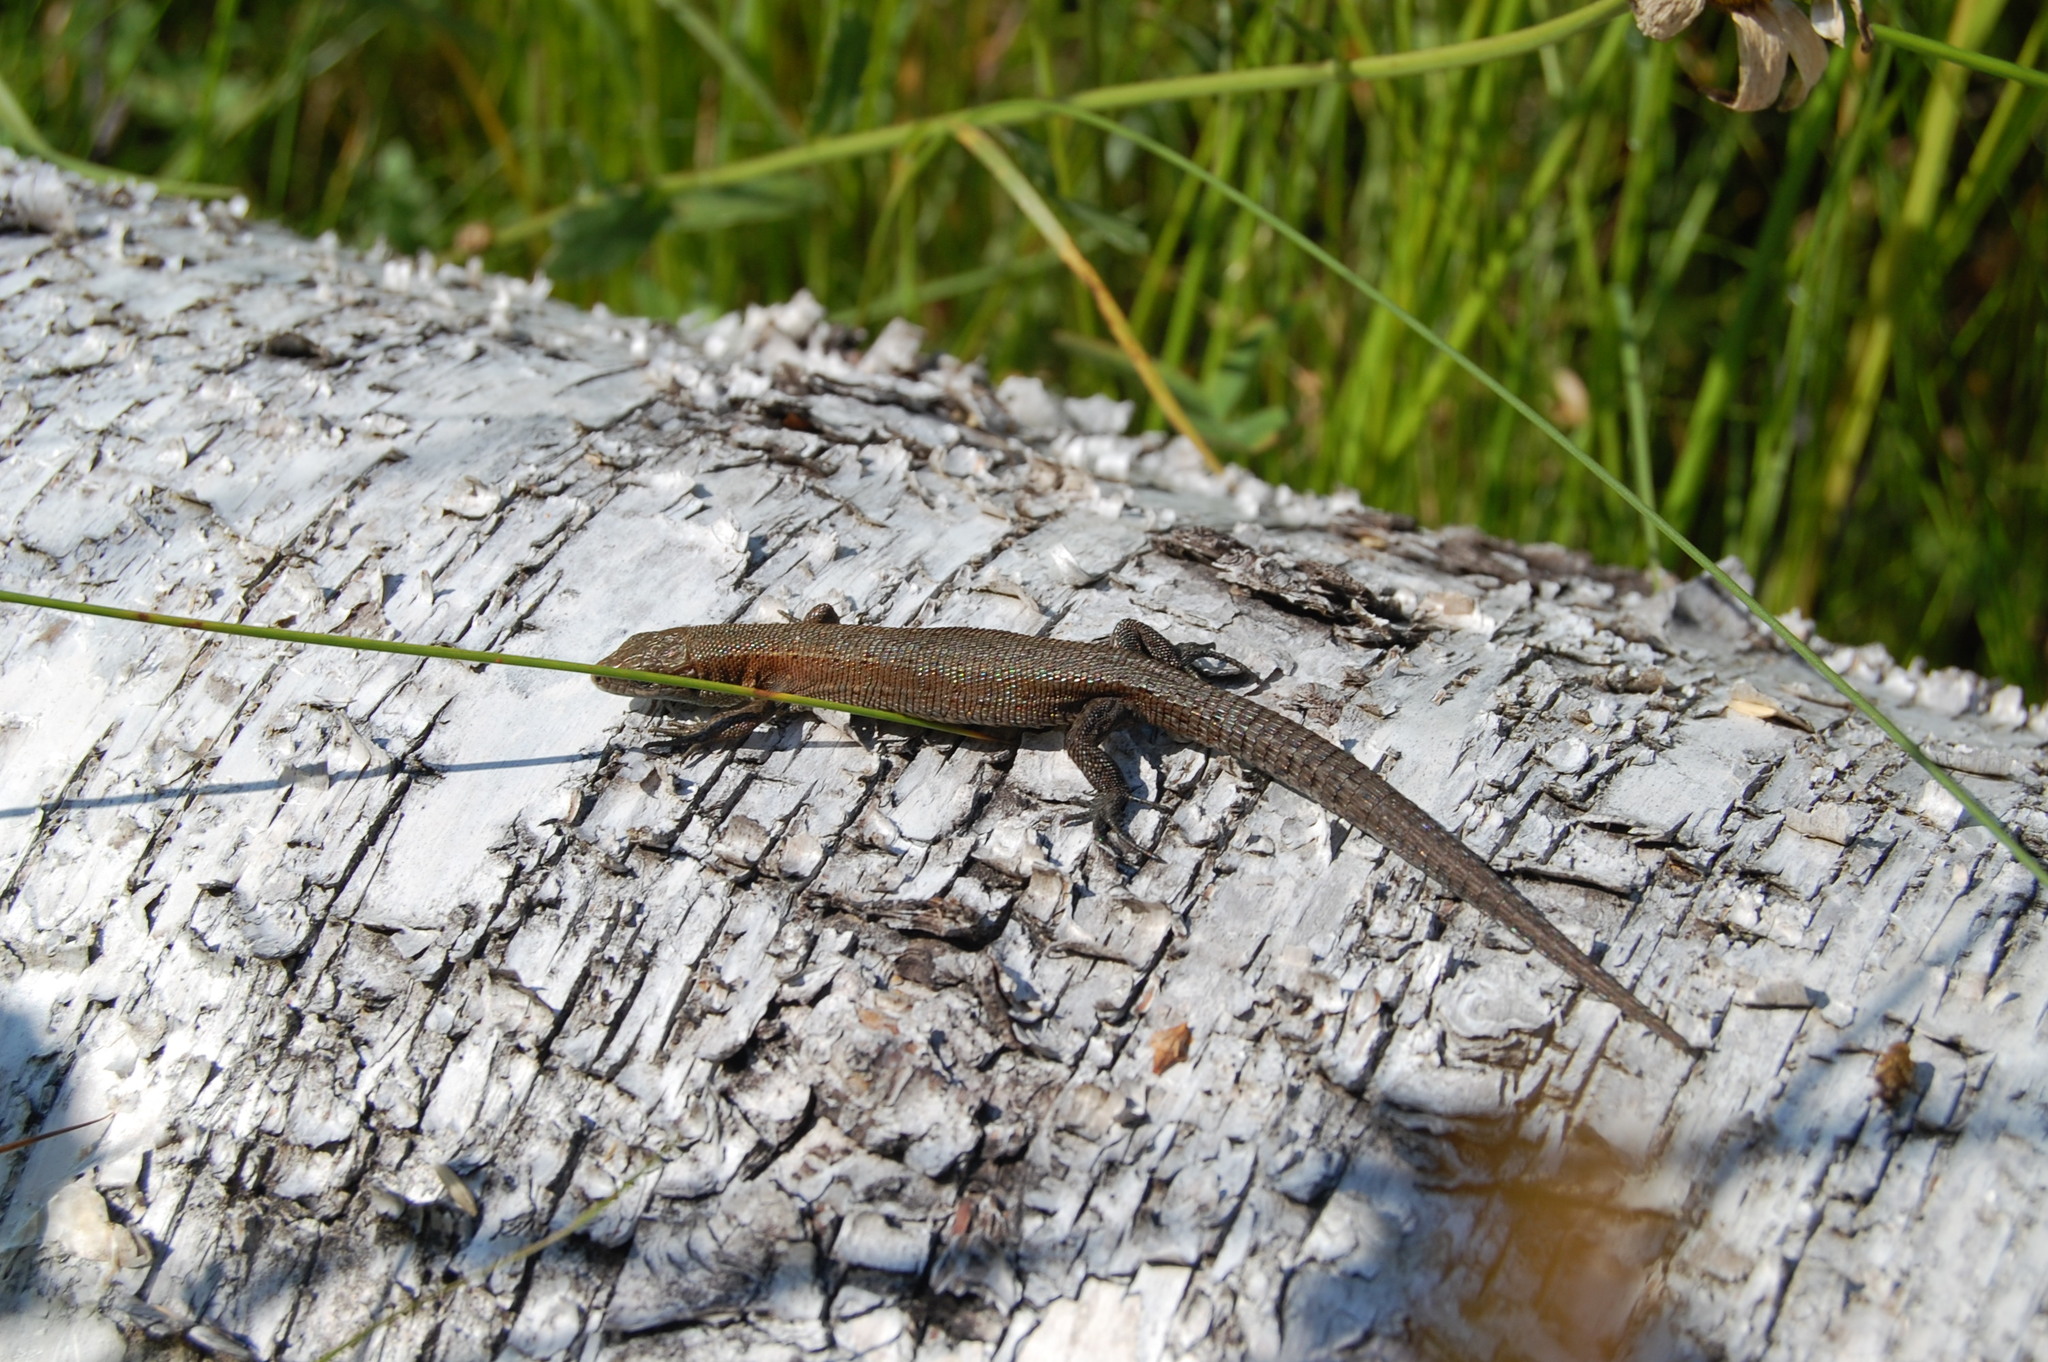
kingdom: Animalia
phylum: Chordata
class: Squamata
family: Lacertidae
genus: Zootoca
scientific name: Zootoca vivipara
